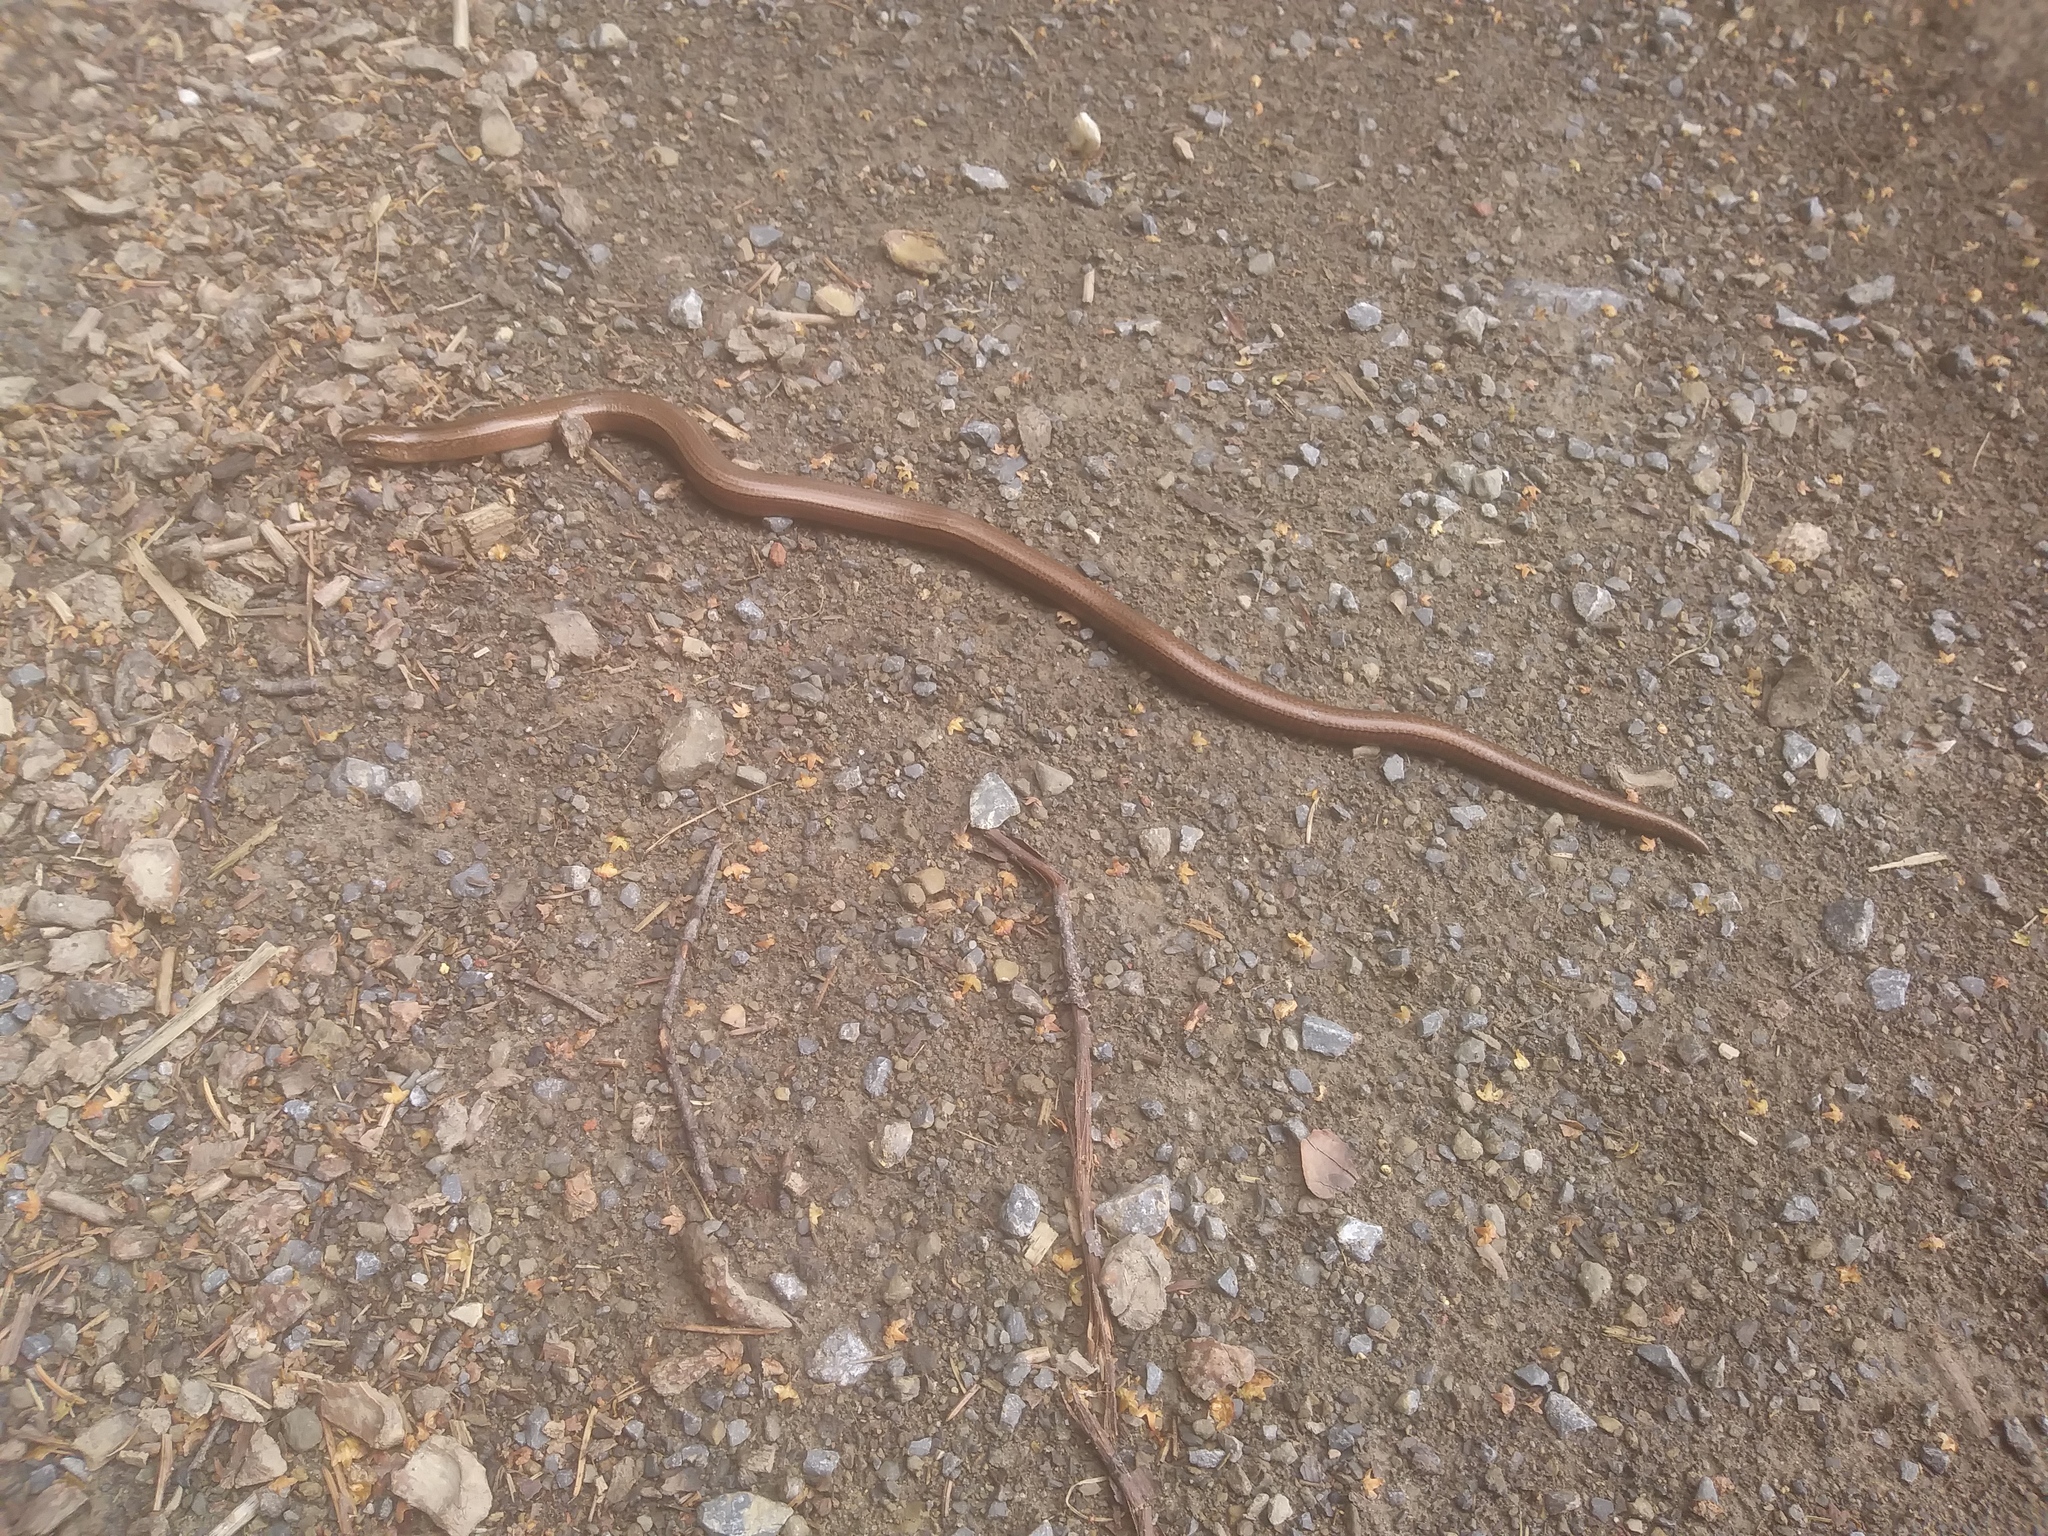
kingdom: Animalia
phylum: Chordata
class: Squamata
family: Anguidae
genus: Anguis
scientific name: Anguis fragilis
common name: Slow worm
